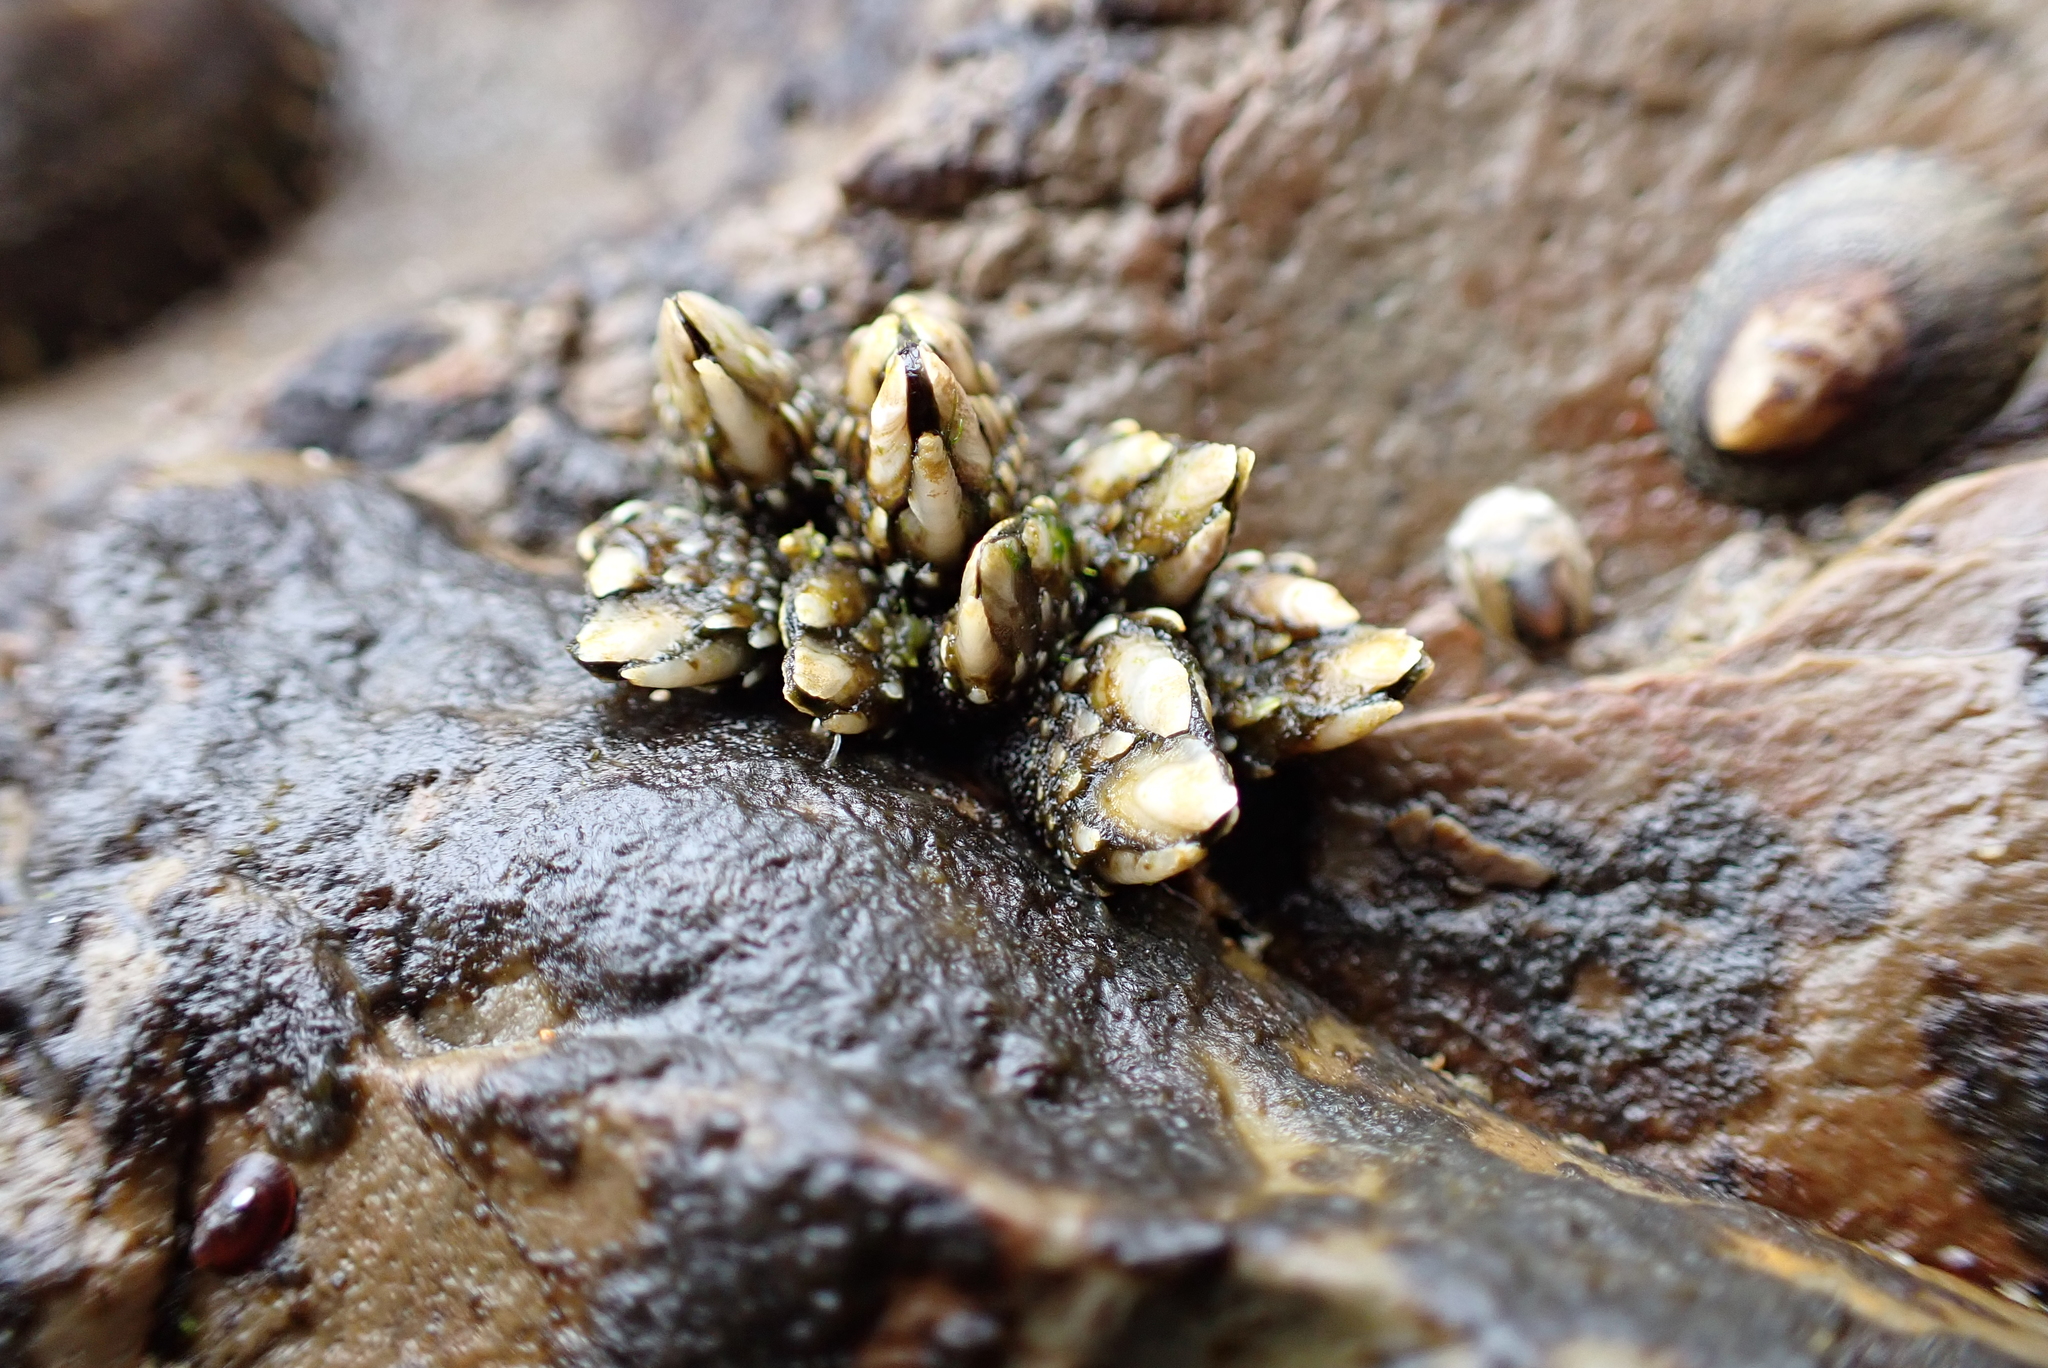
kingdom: Animalia
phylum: Arthropoda
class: Maxillopoda
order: Pedunculata
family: Pollicipedidae
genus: Pollicipes
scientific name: Pollicipes polymerus
